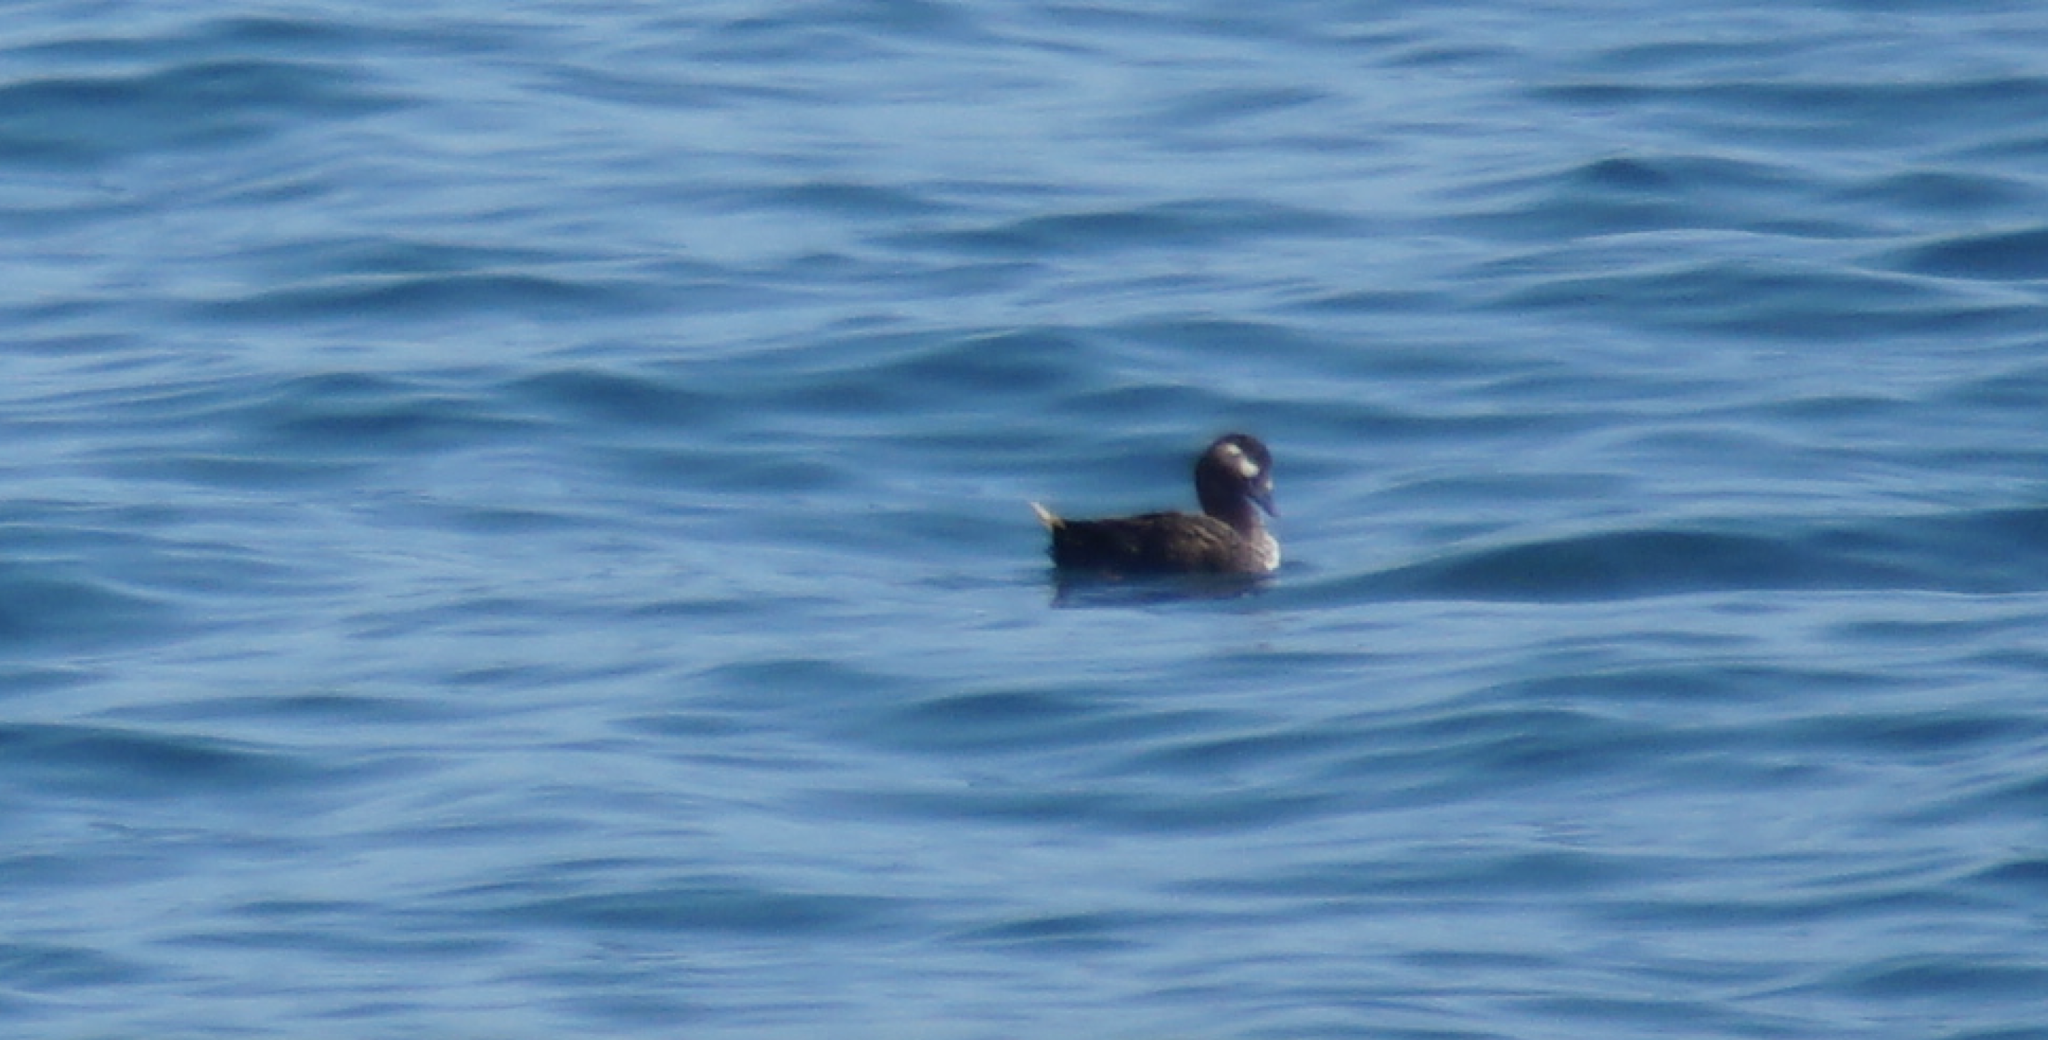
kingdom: Animalia
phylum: Chordata
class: Aves
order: Anseriformes
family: Anatidae
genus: Melanitta
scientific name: Melanitta perspicillata
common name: Surf scoter
